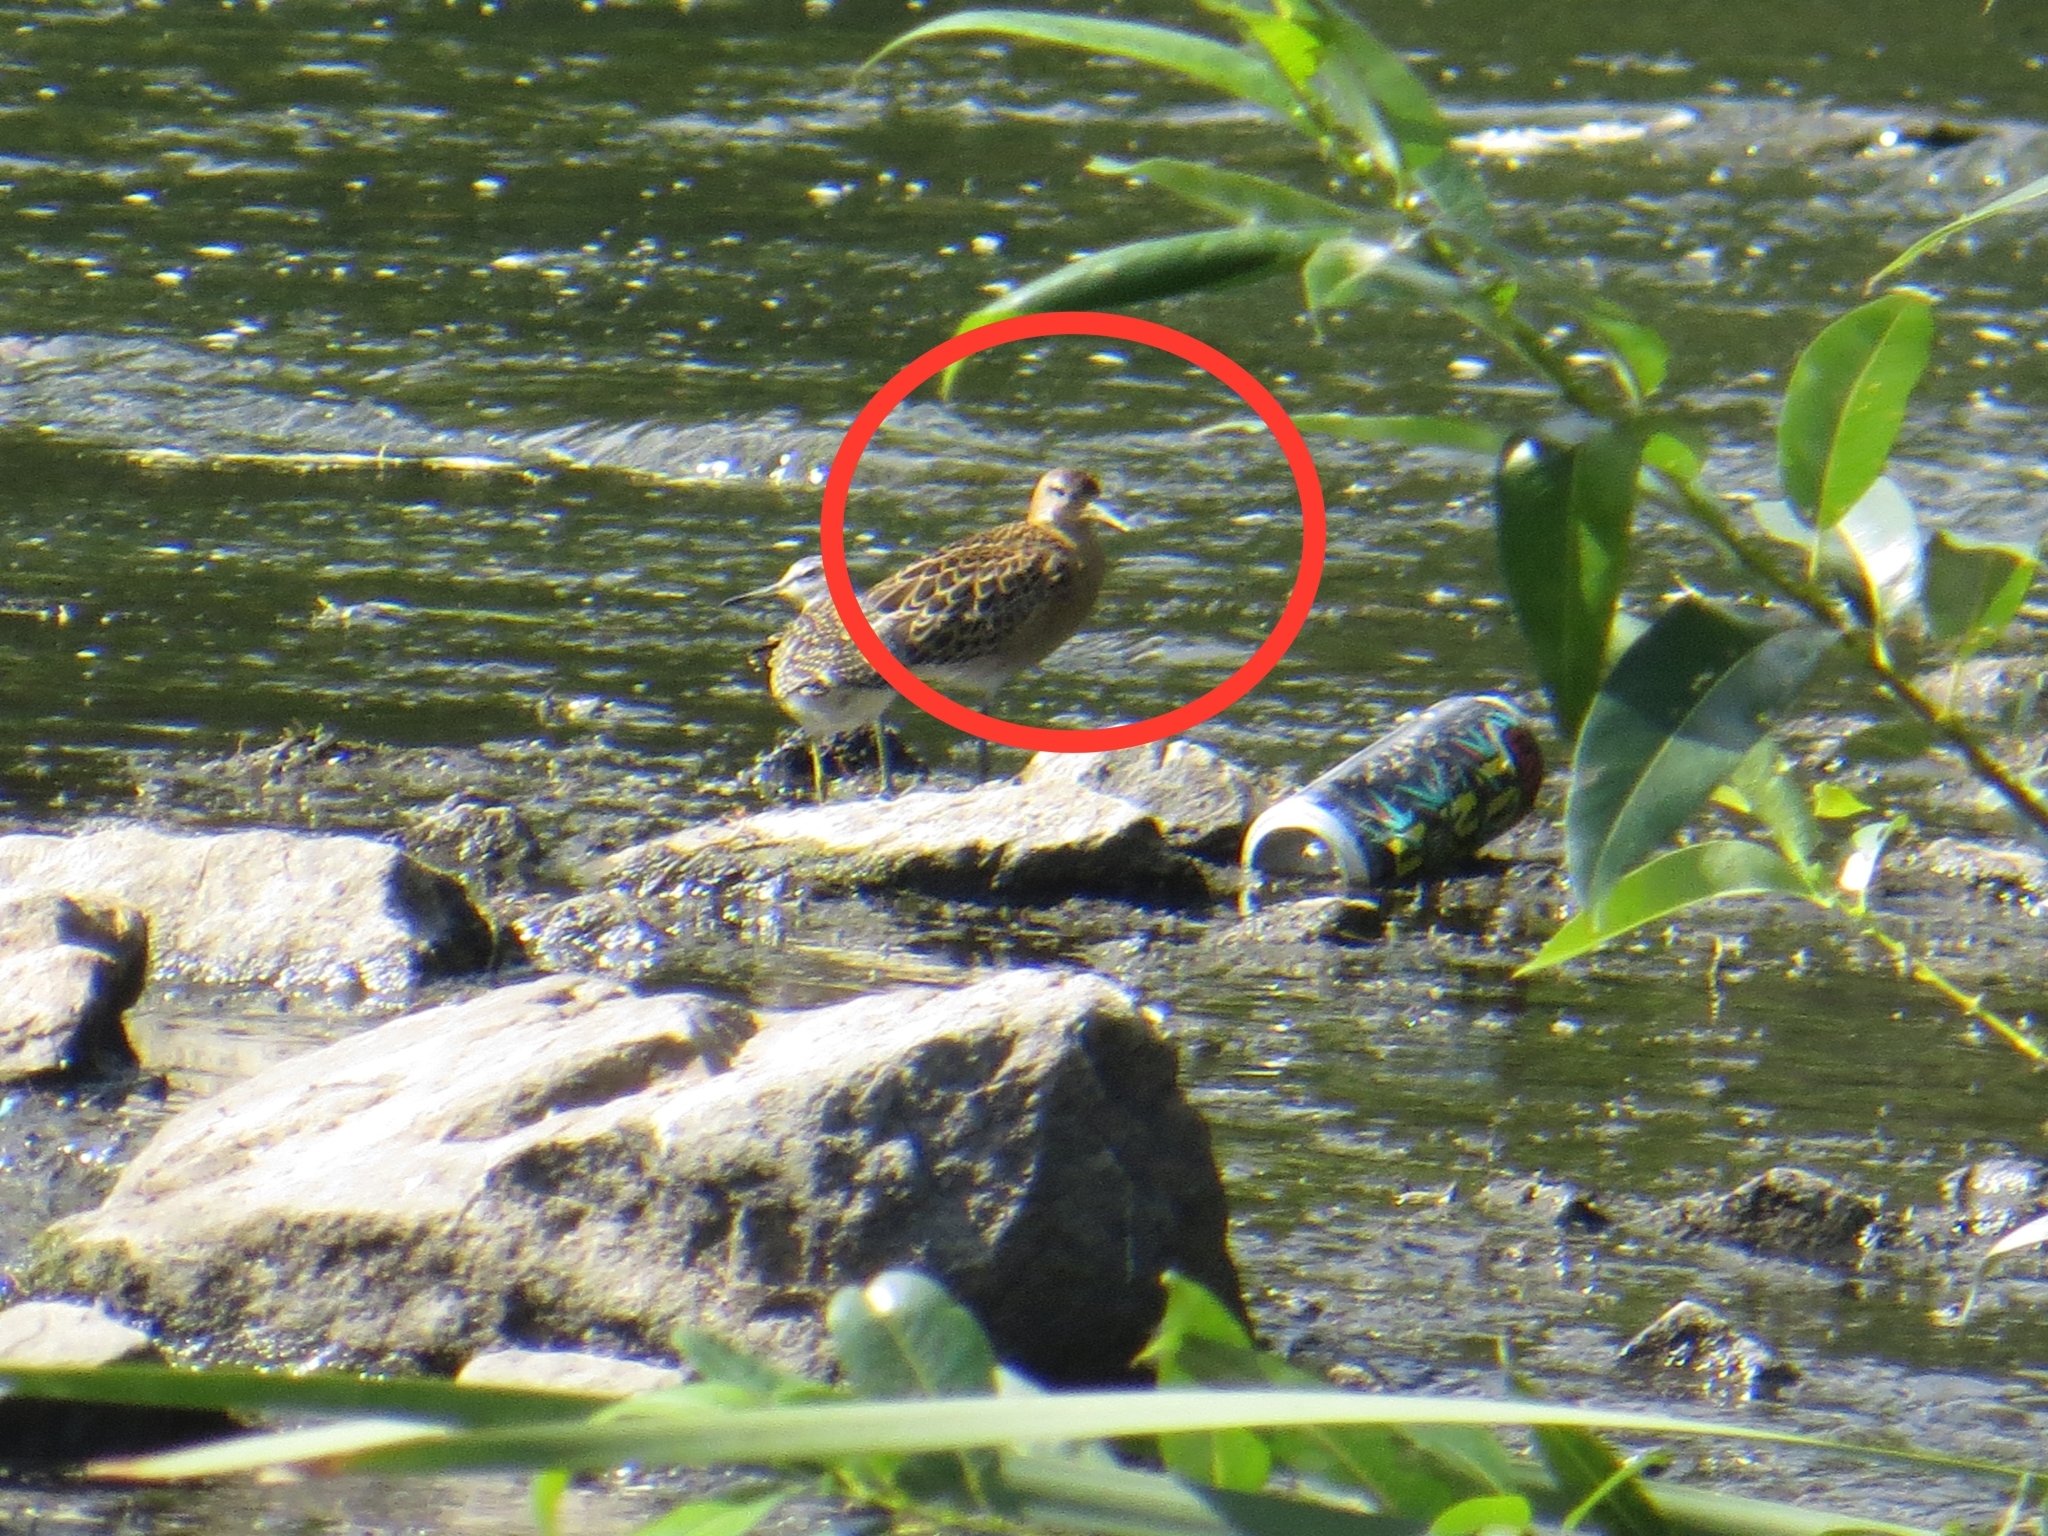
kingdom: Animalia
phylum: Chordata
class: Aves
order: Charadriiformes
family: Scolopacidae
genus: Calidris
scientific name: Calidris pugnax
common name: Ruff
